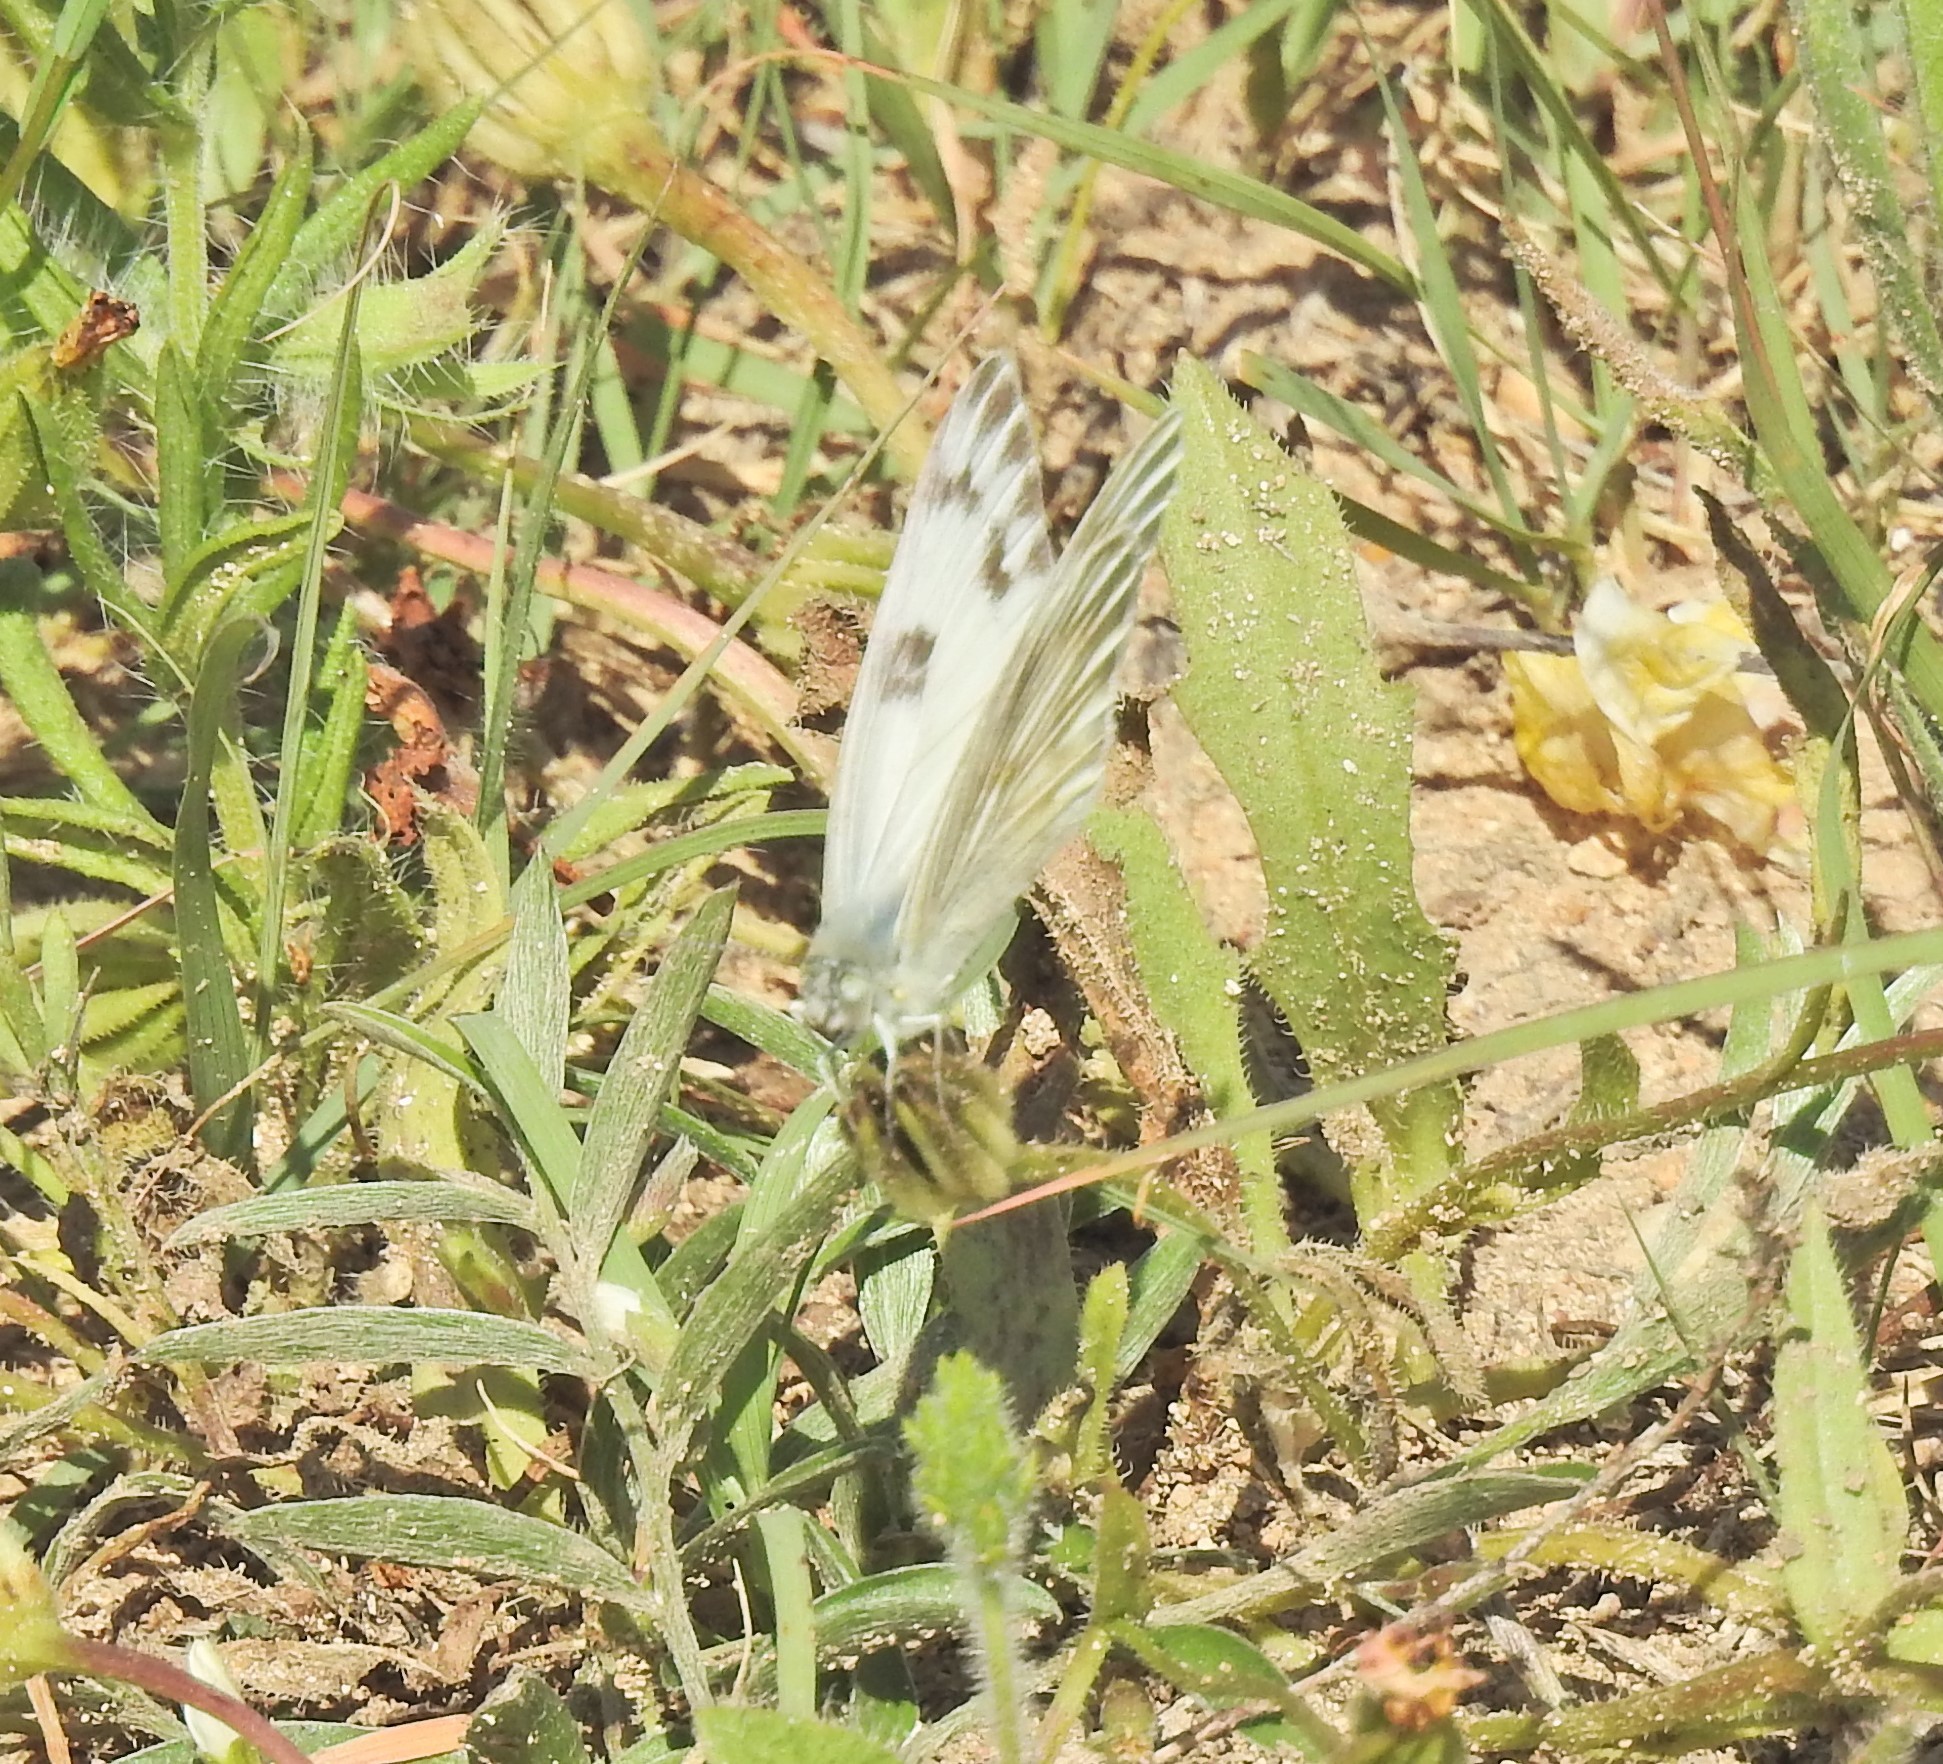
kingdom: Animalia
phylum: Arthropoda
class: Insecta
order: Lepidoptera
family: Pieridae
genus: Pontia
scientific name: Pontia protodice
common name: Checkered white
